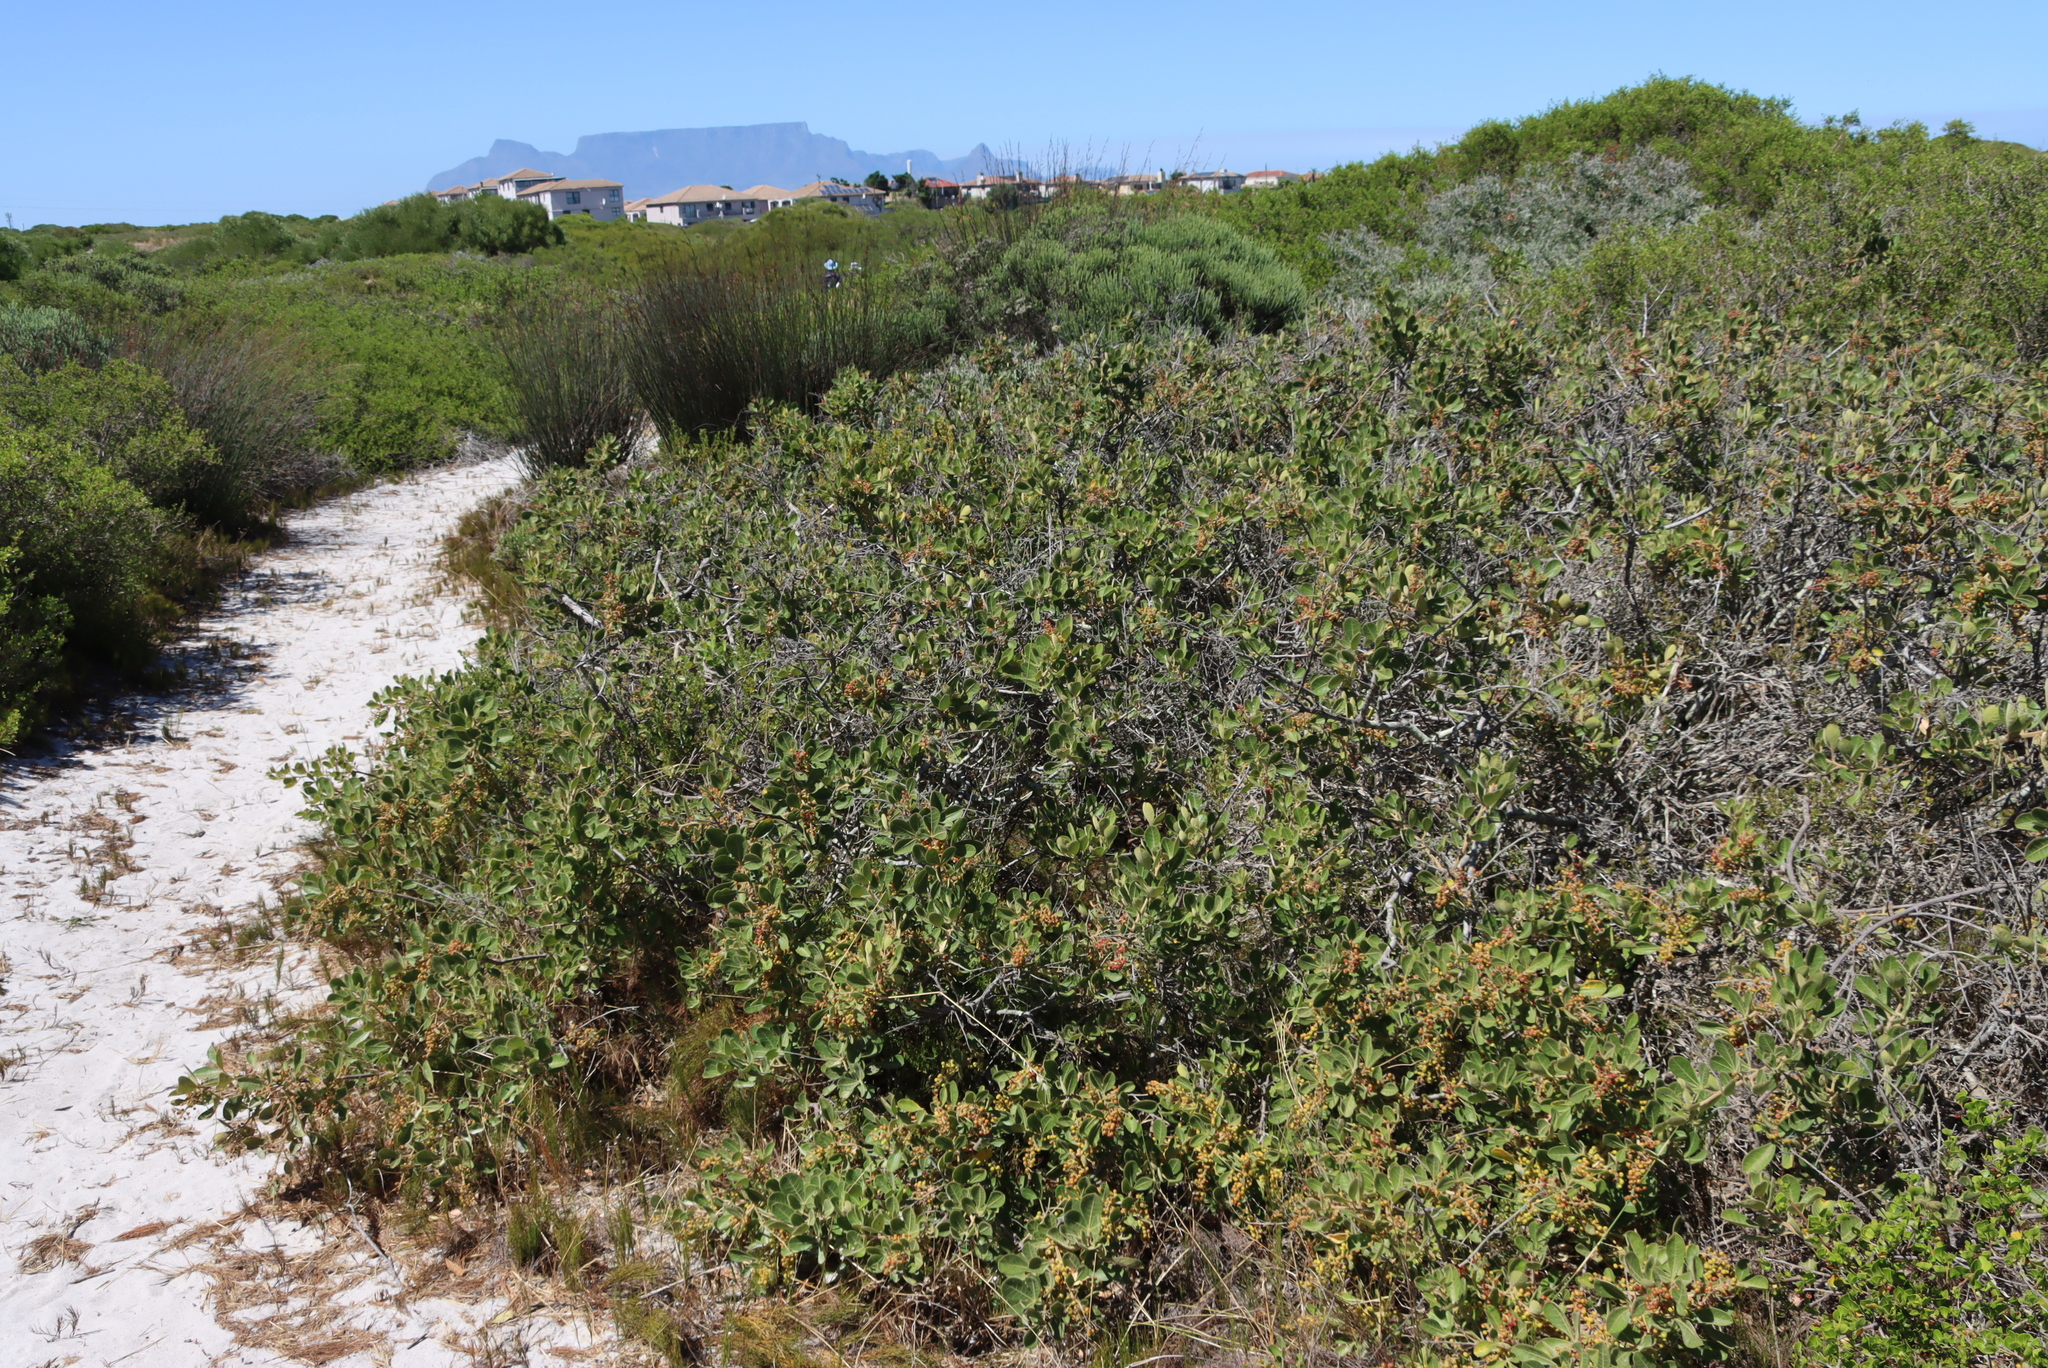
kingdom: Plantae
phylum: Tracheophyta
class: Magnoliopsida
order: Sapindales
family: Anacardiaceae
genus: Searsia
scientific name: Searsia laevigata
